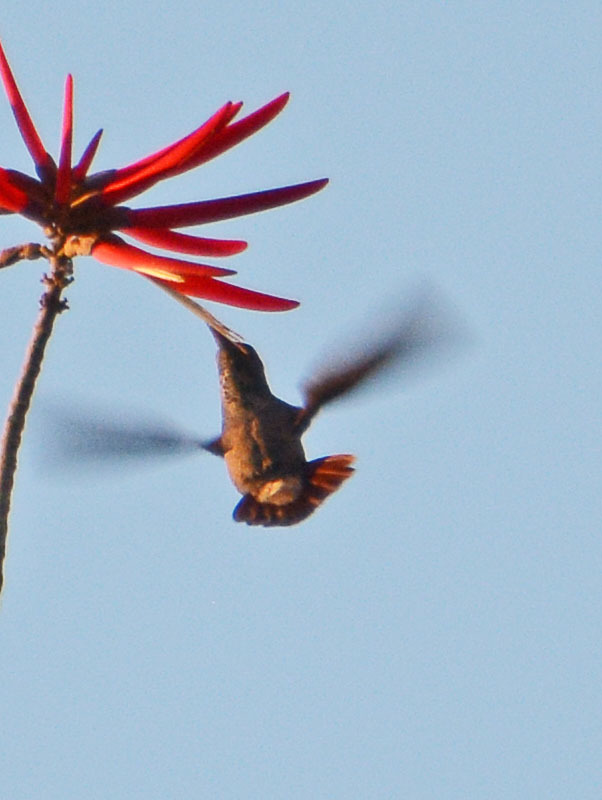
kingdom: Animalia
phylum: Chordata
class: Aves
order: Apodiformes
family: Trochilidae
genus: Saucerottia
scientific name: Saucerottia beryllina
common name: Berylline hummingbird
